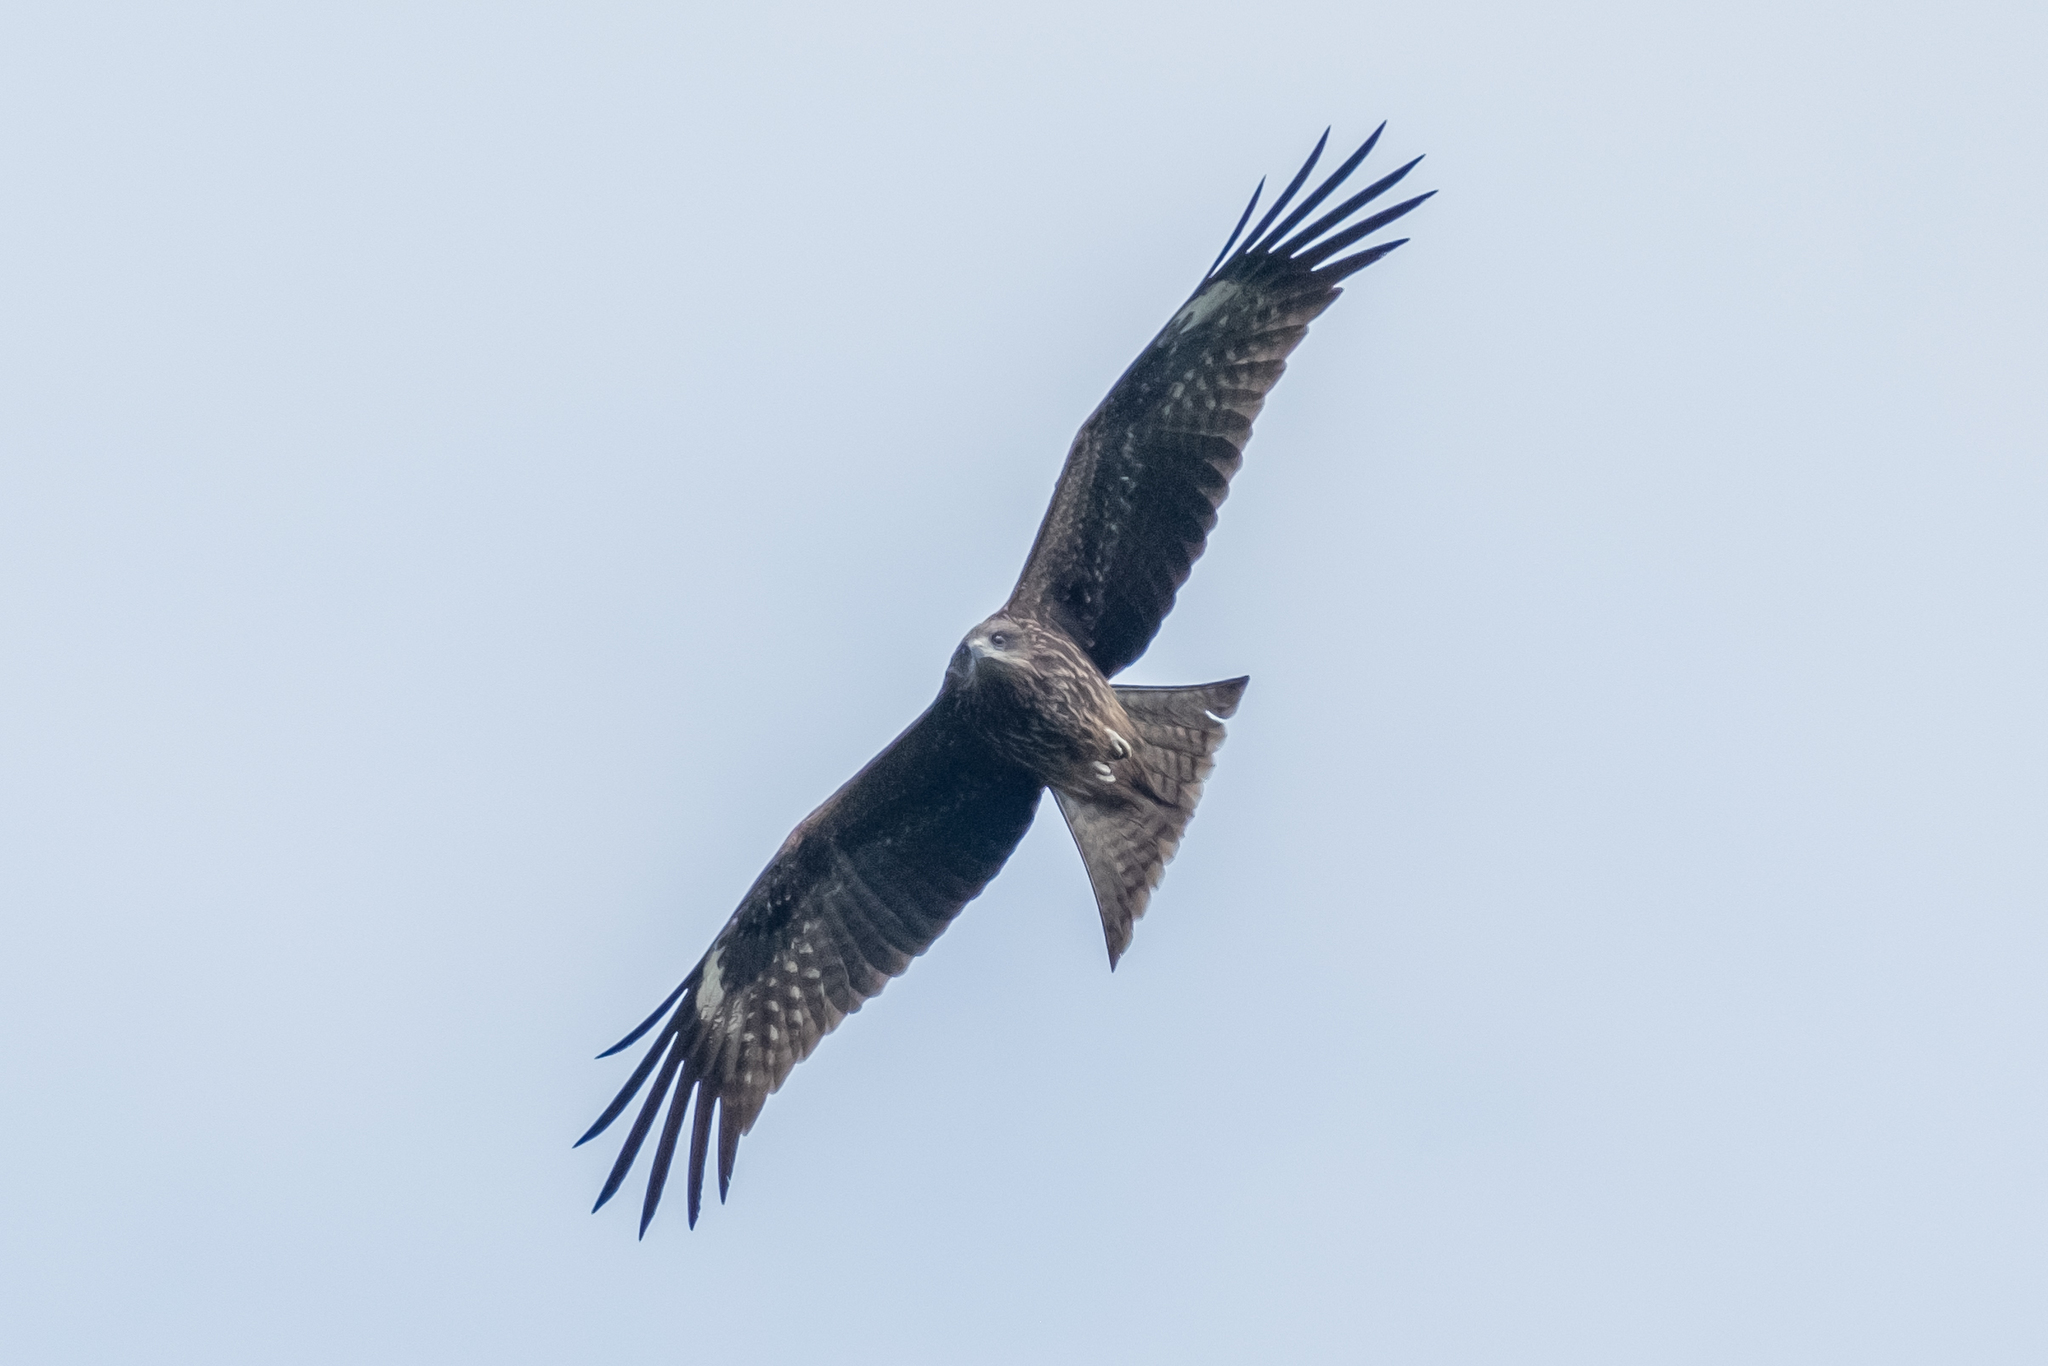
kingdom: Animalia
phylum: Chordata
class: Aves
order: Accipitriformes
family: Accipitridae
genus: Milvus
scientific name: Milvus migrans
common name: Black kite
